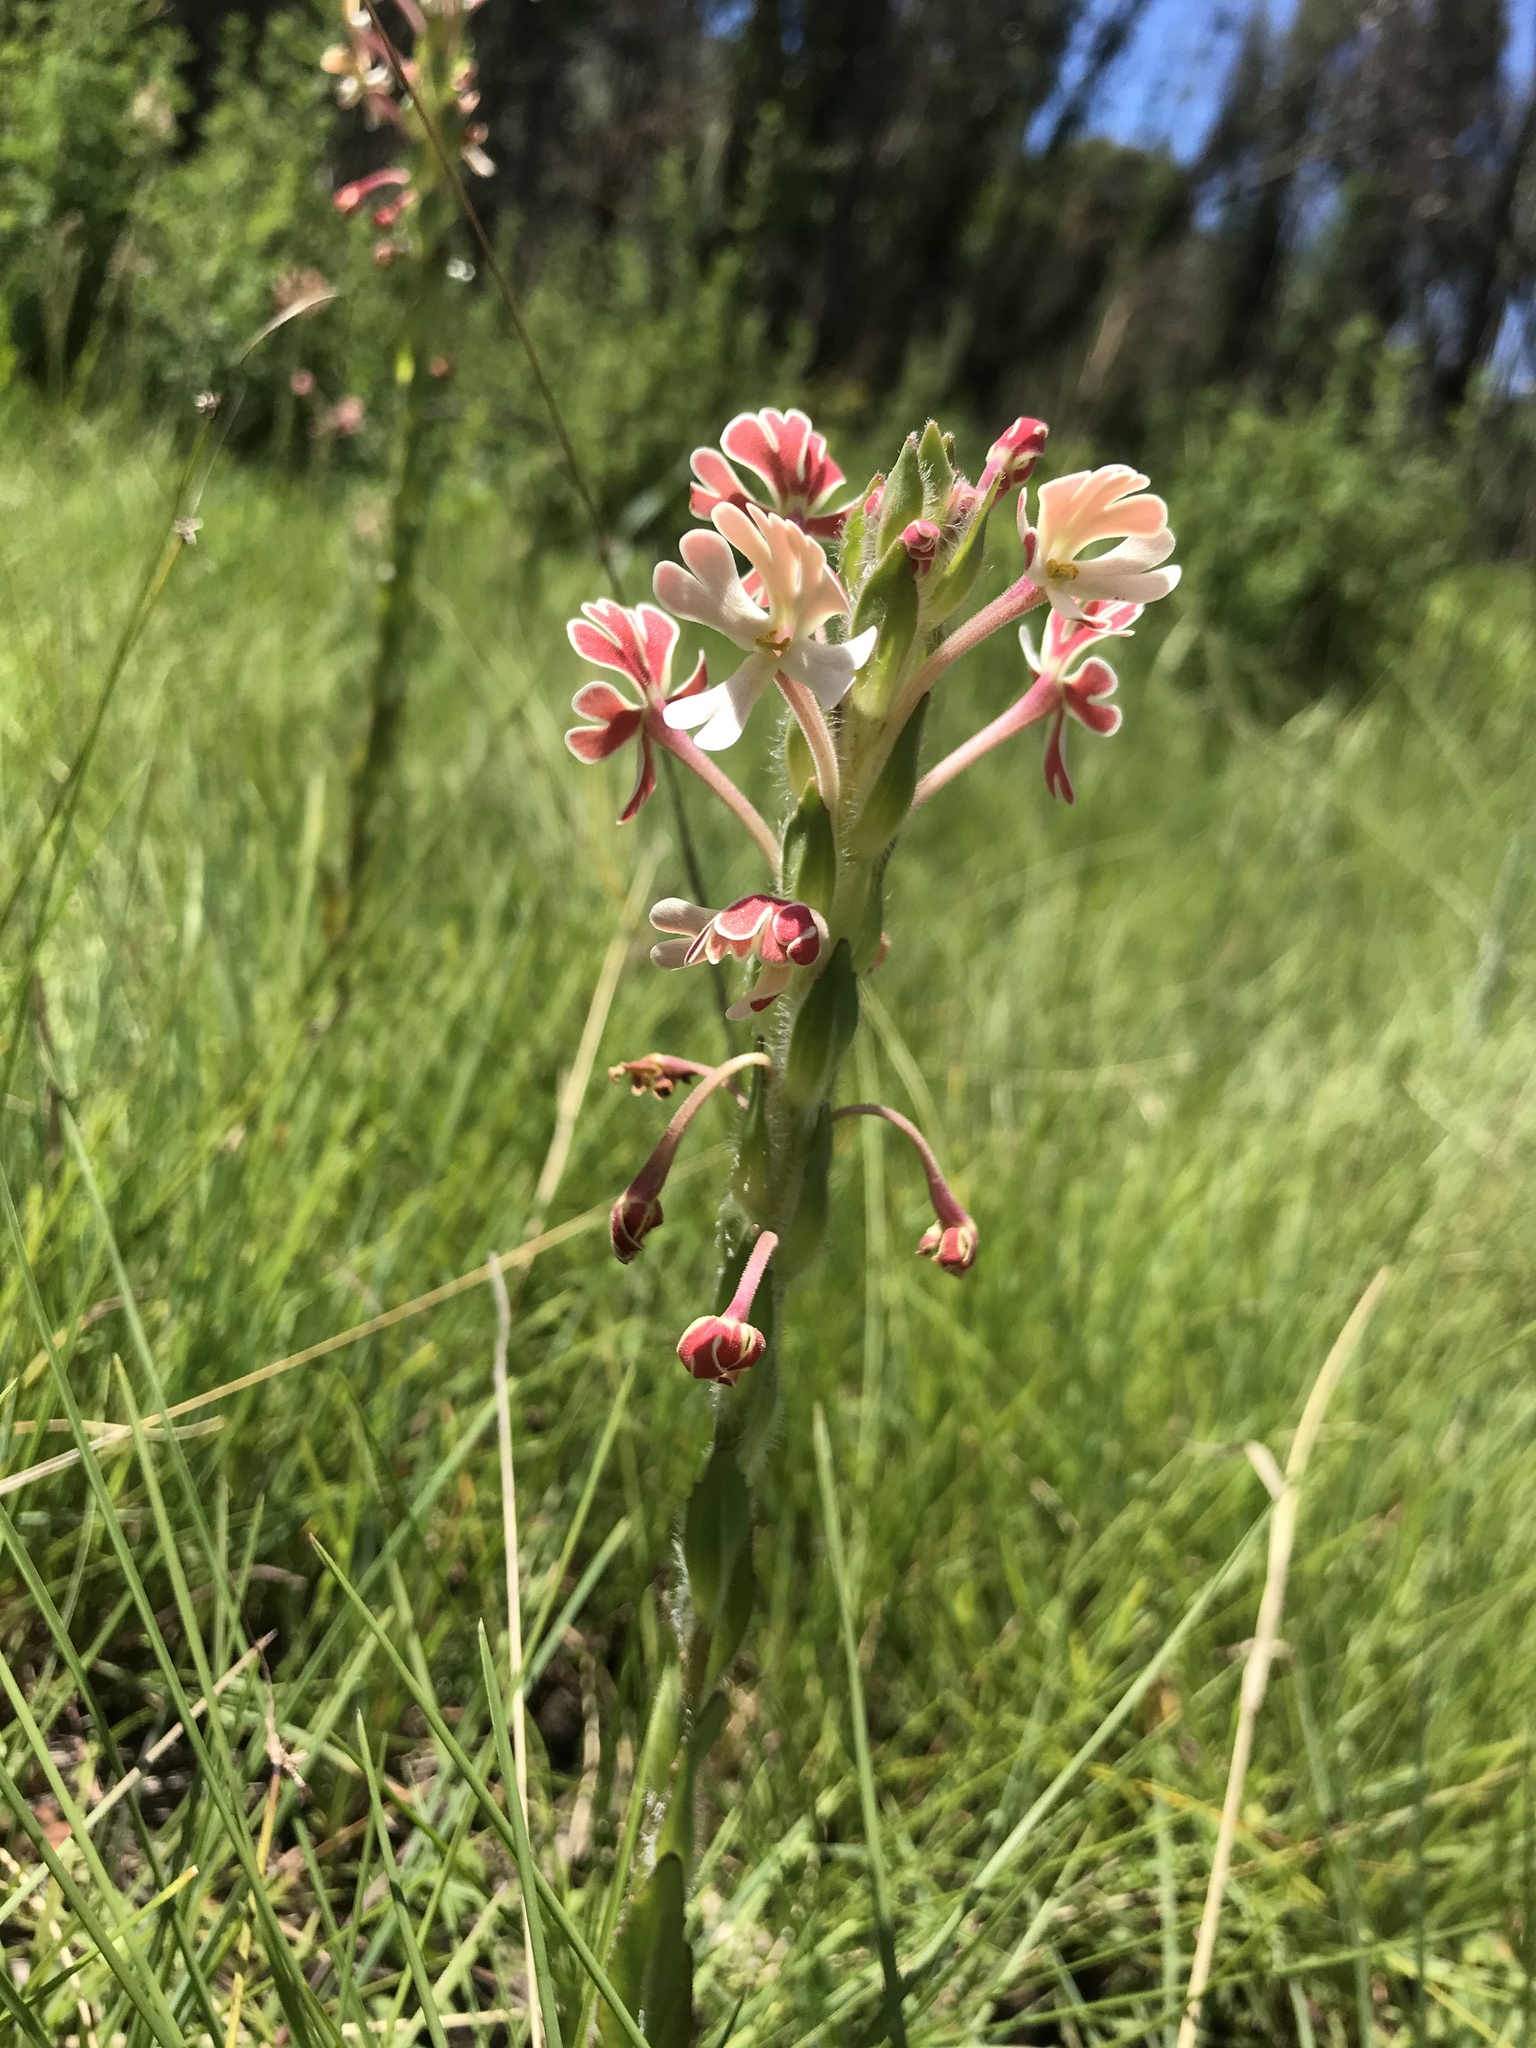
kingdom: Plantae
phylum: Tracheophyta
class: Magnoliopsida
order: Lamiales
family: Scrophulariaceae
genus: Zaluzianskya
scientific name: Zaluzianskya microsiphon
